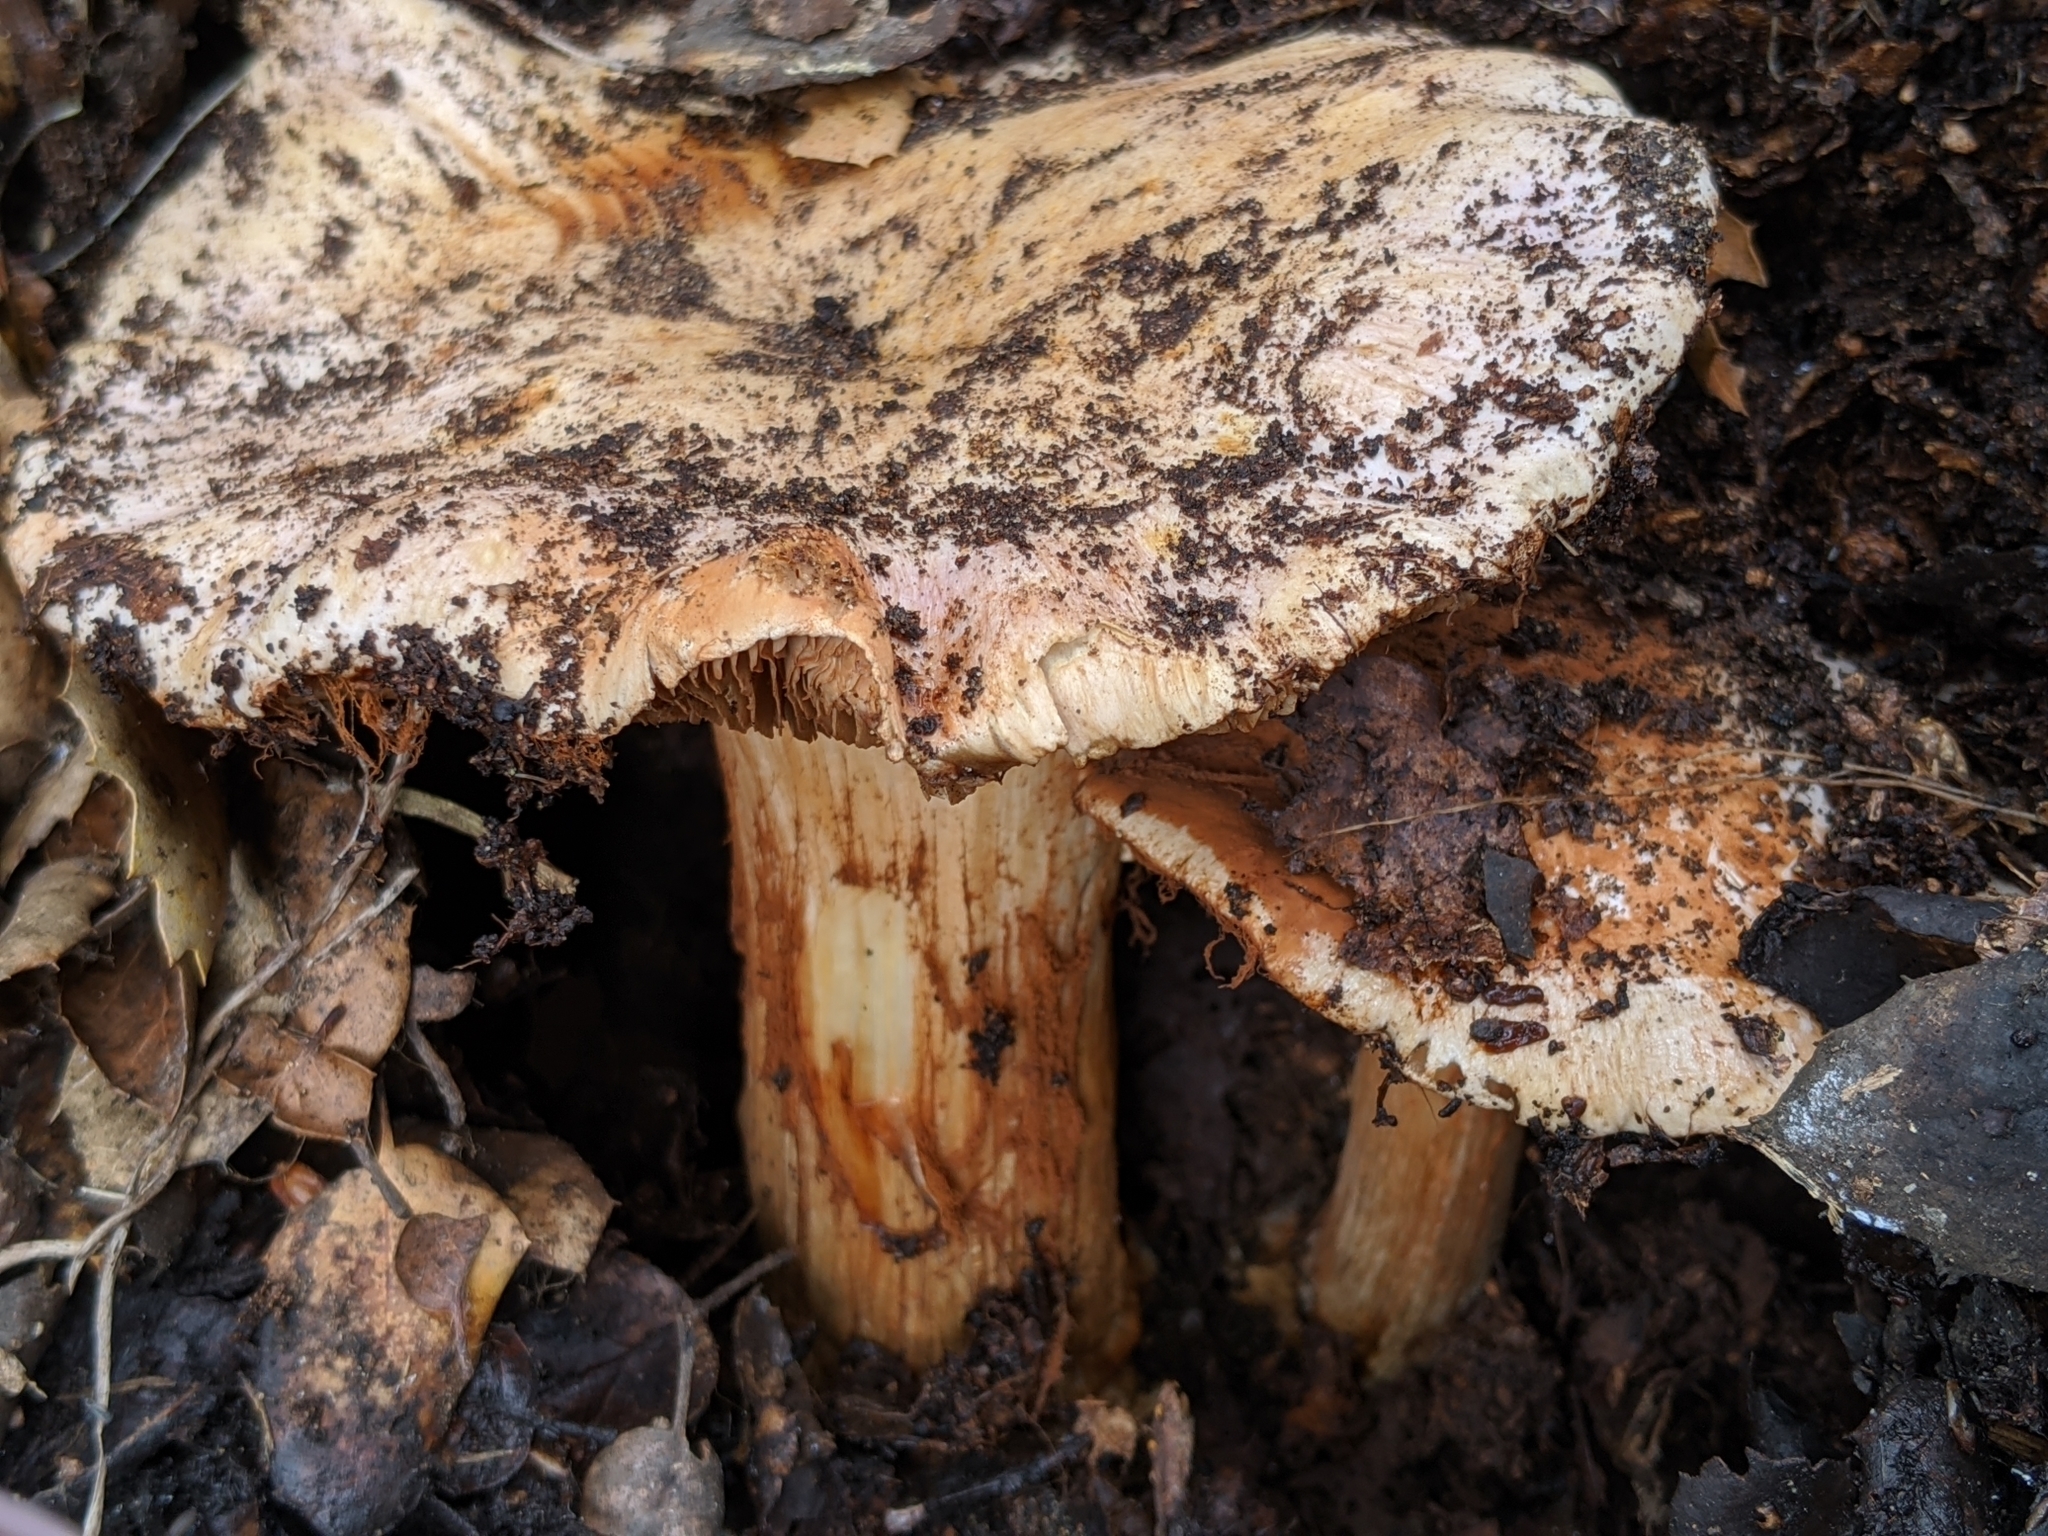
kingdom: Fungi
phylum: Basidiomycota
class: Agaricomycetes
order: Agaricales
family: Cortinariaceae
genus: Cortinarius
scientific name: Cortinarius regalis
